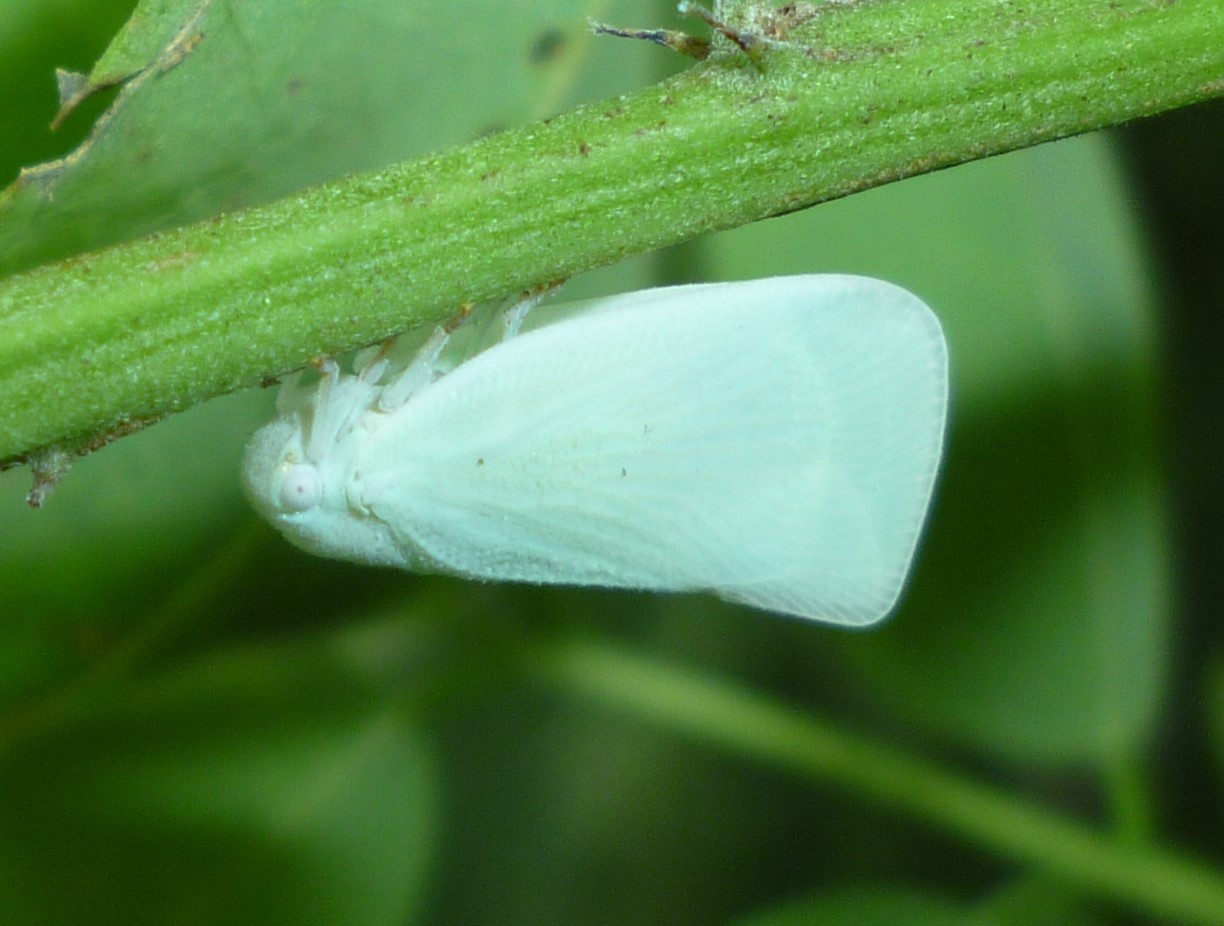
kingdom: Animalia
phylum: Arthropoda
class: Insecta
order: Hemiptera
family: Flatidae
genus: Flatormenis
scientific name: Flatormenis proxima
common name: Northern flatid planthopper
